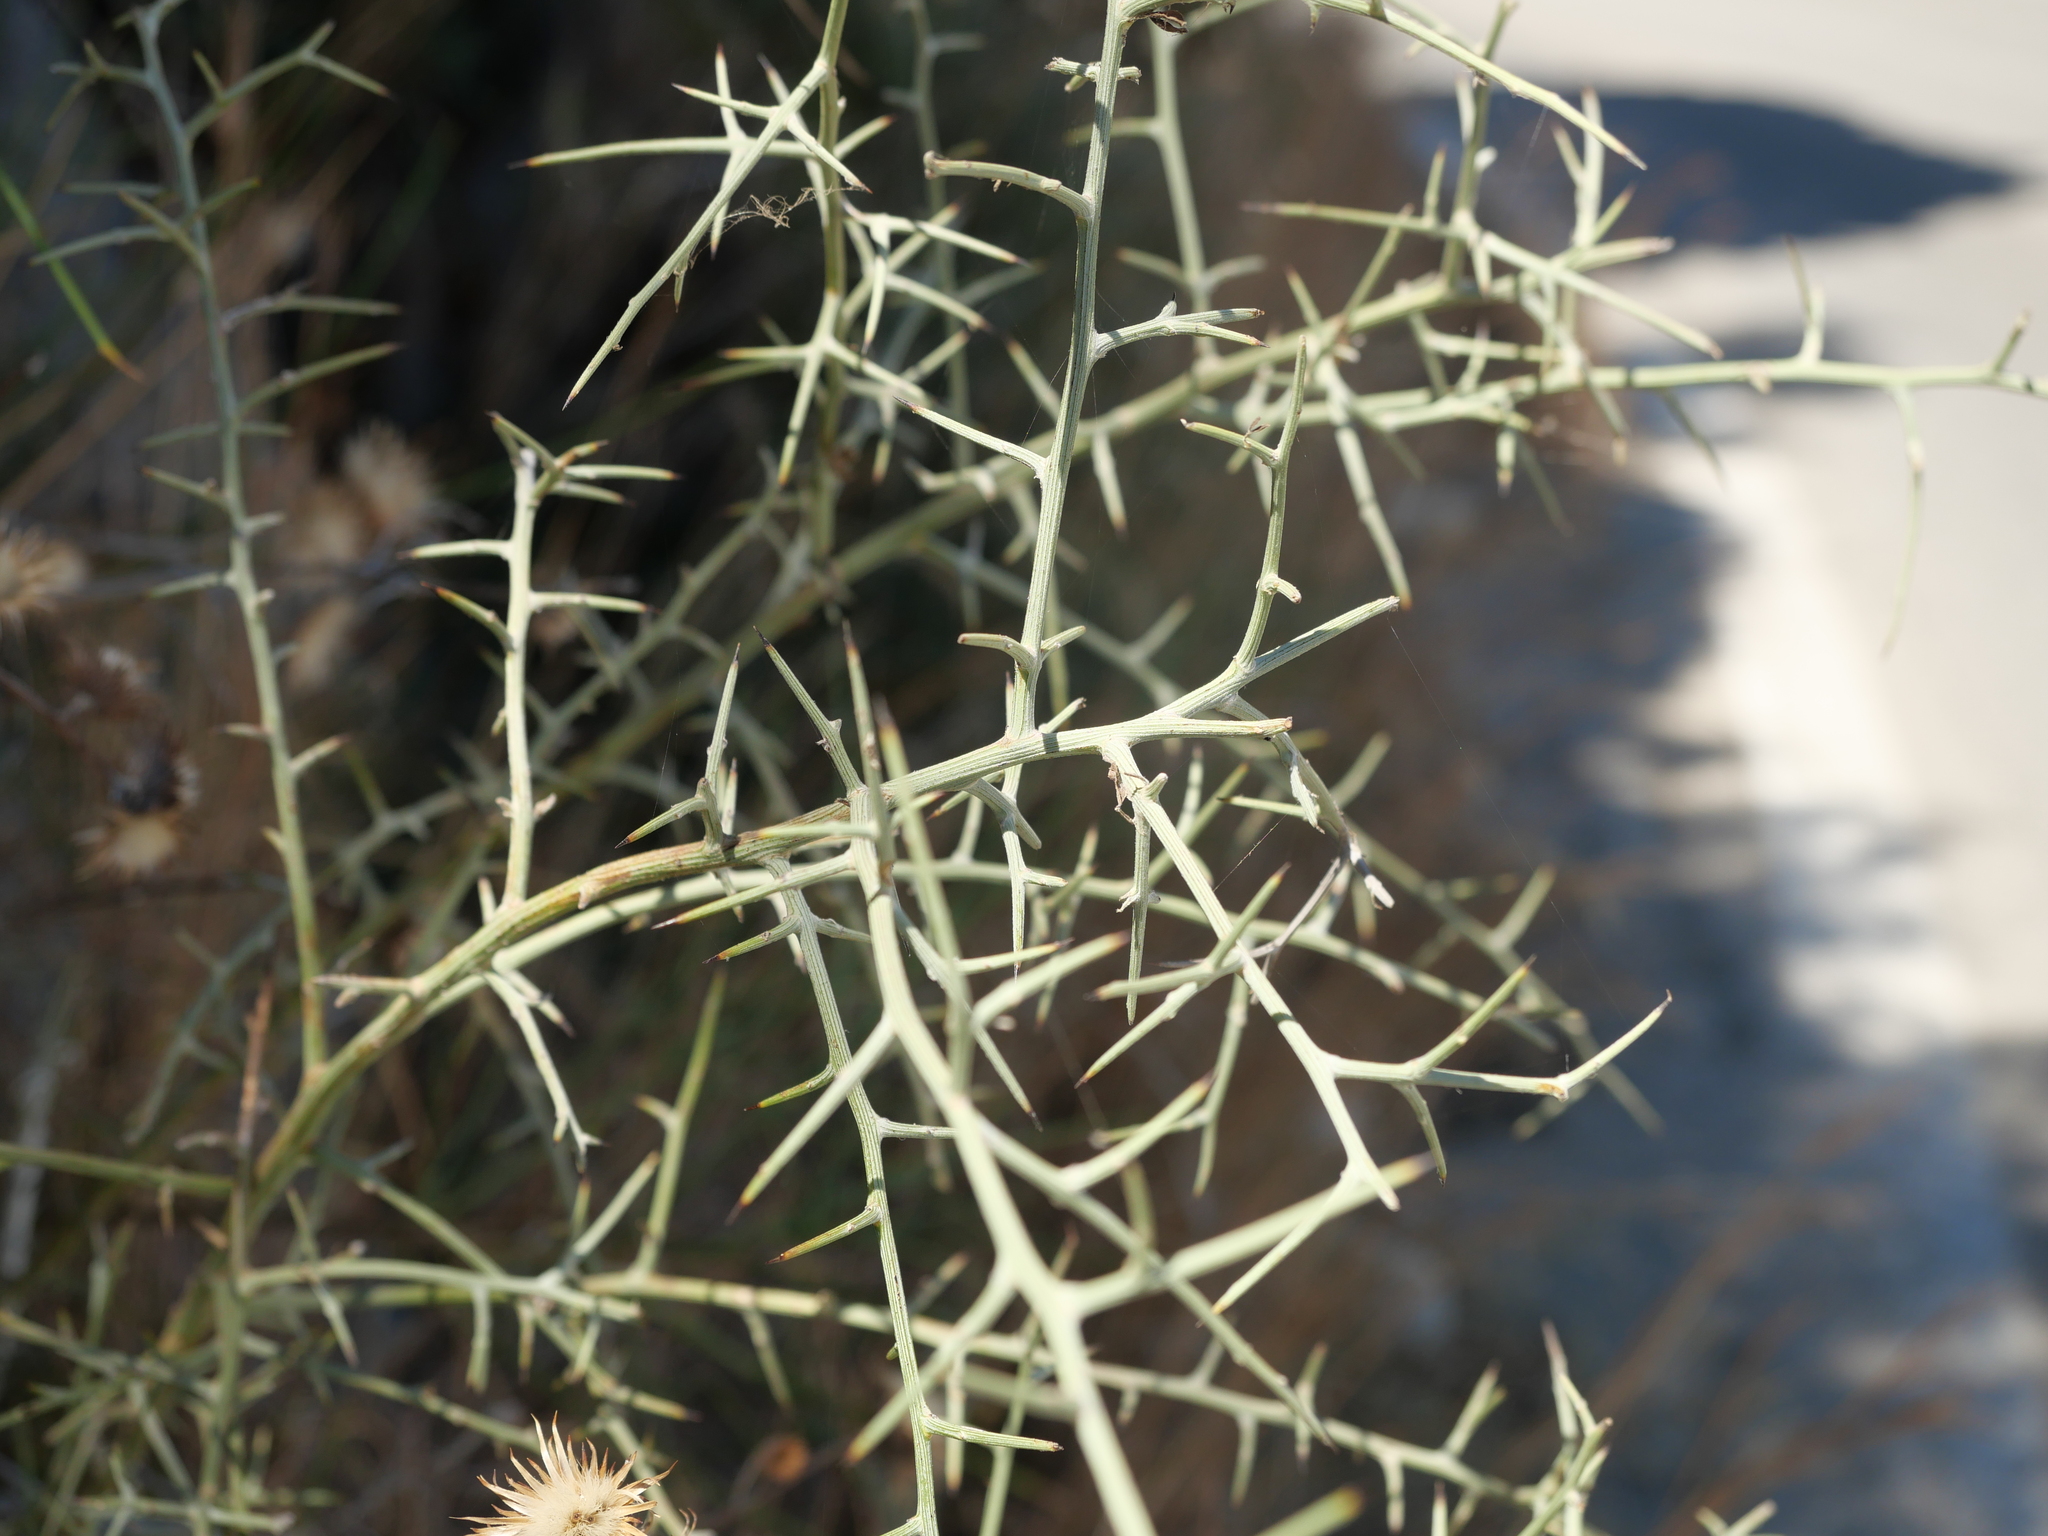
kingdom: Plantae
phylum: Tracheophyta
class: Magnoliopsida
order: Fabales
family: Fabaceae
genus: Calicotome
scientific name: Calicotome villosa
